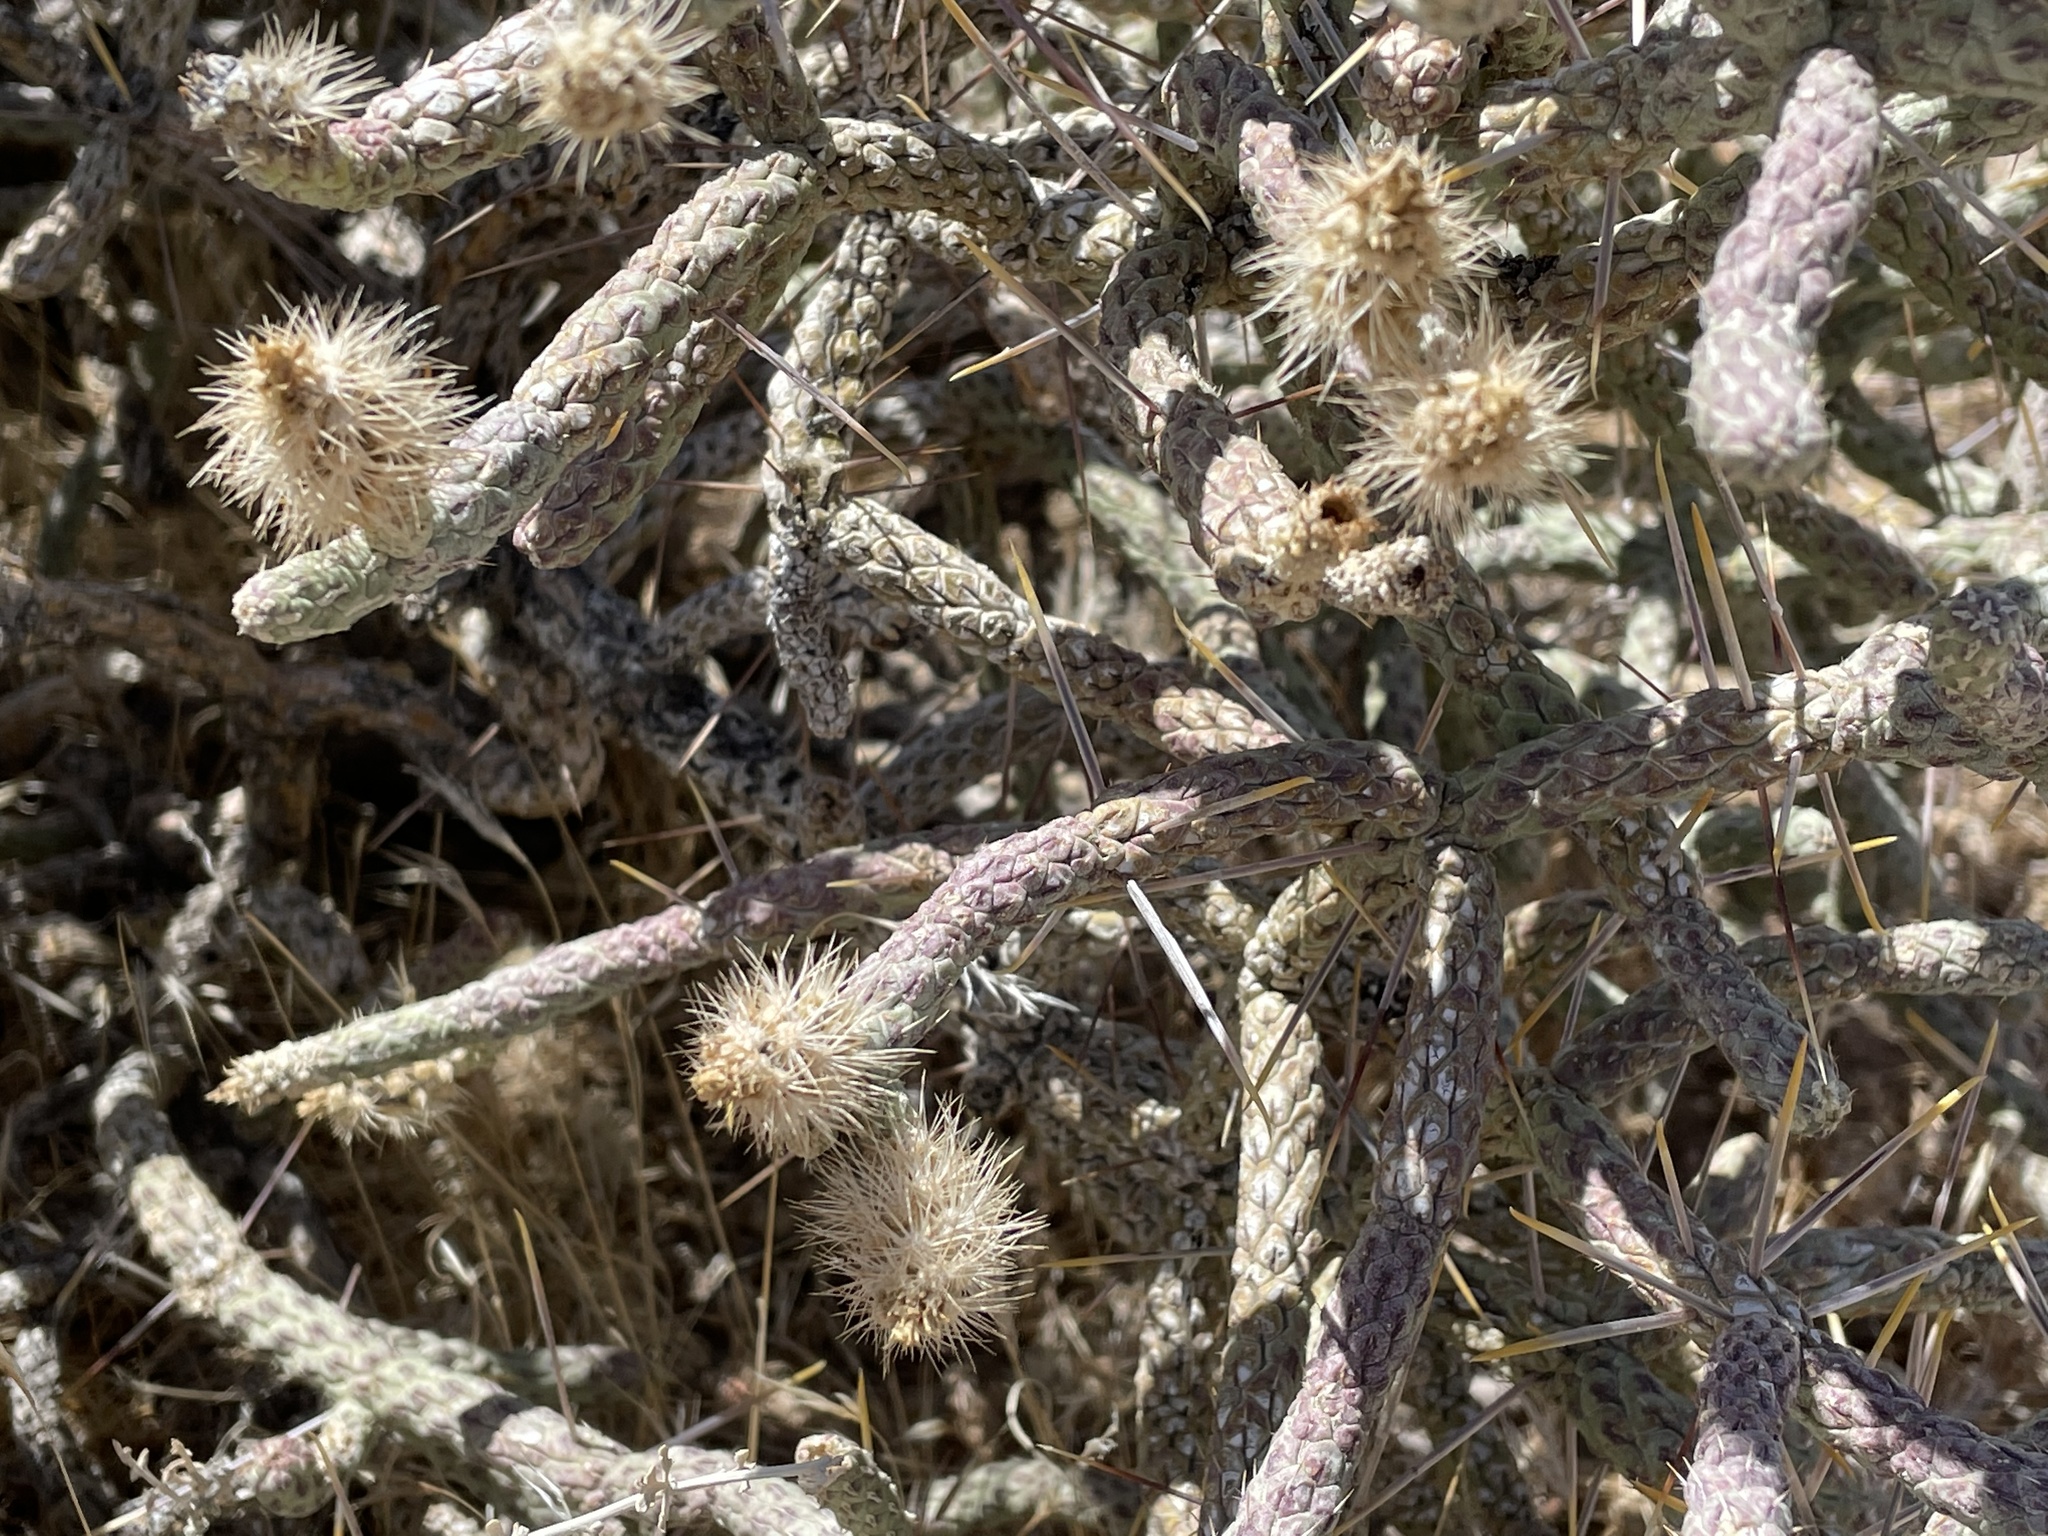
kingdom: Plantae
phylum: Tracheophyta
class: Magnoliopsida
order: Caryophyllales
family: Cactaceae
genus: Cylindropuntia
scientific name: Cylindropuntia ramosissima
